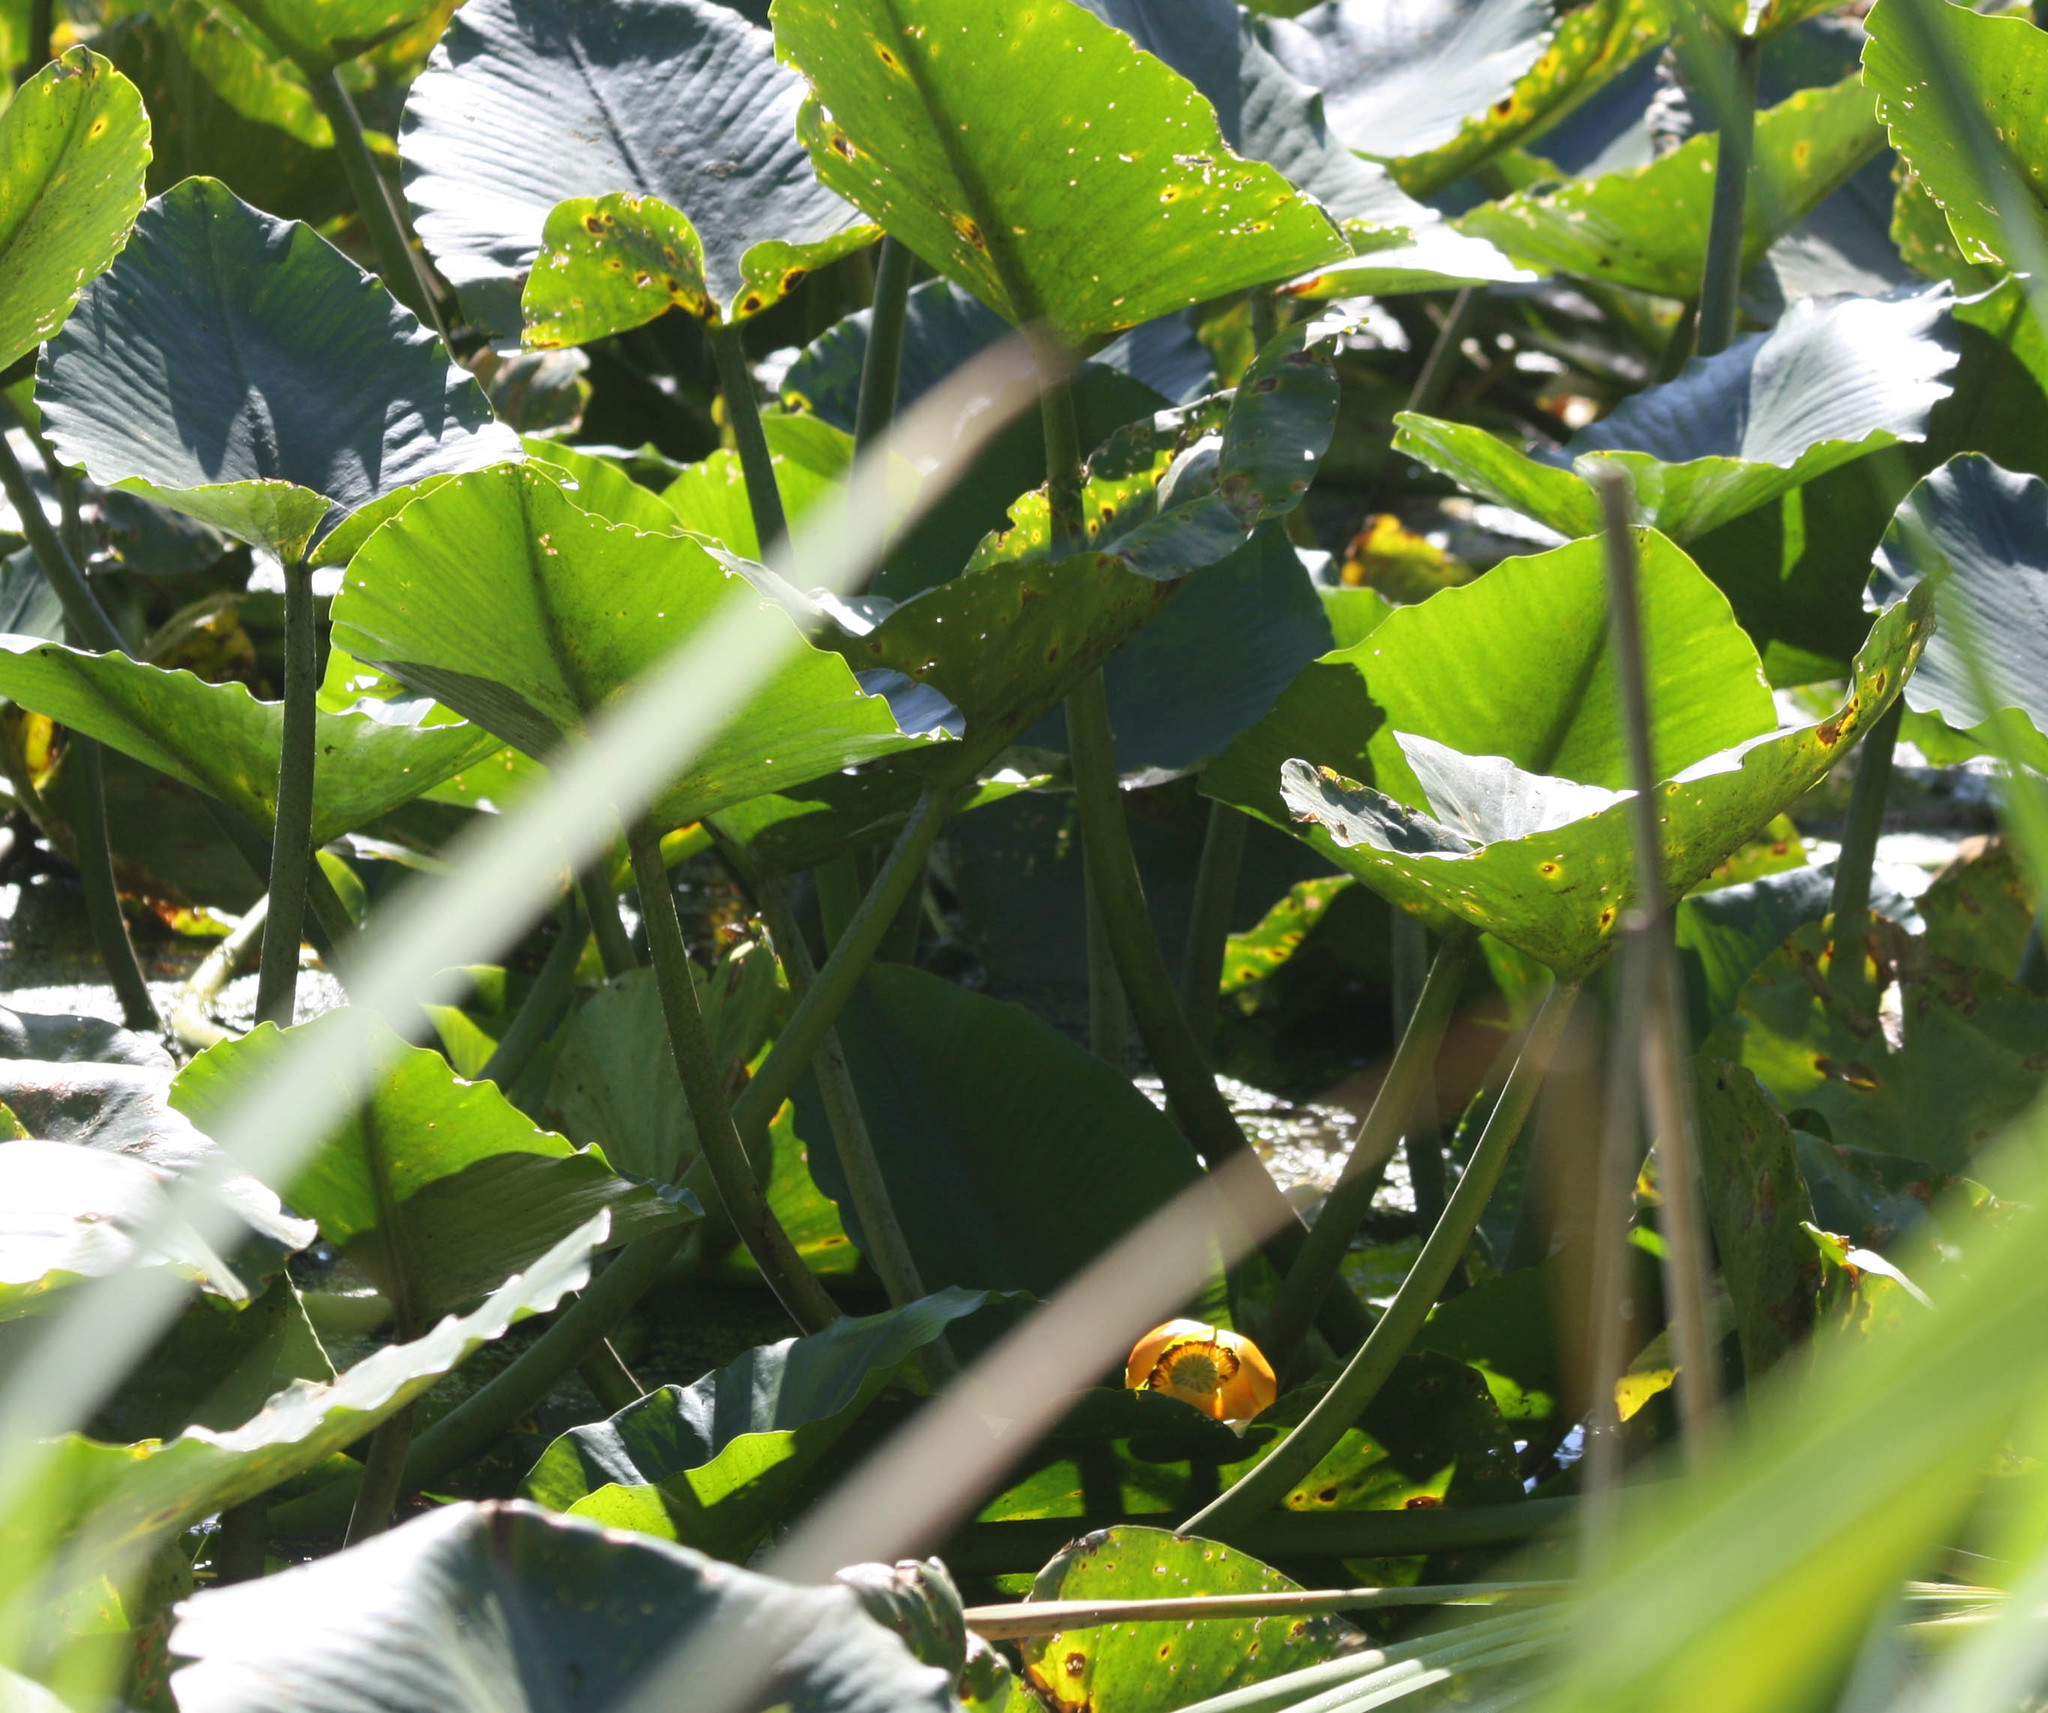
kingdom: Plantae
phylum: Tracheophyta
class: Magnoliopsida
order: Nymphaeales
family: Nymphaeaceae
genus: Nuphar
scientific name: Nuphar polysepala
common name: Rocky mountain cow-lily
